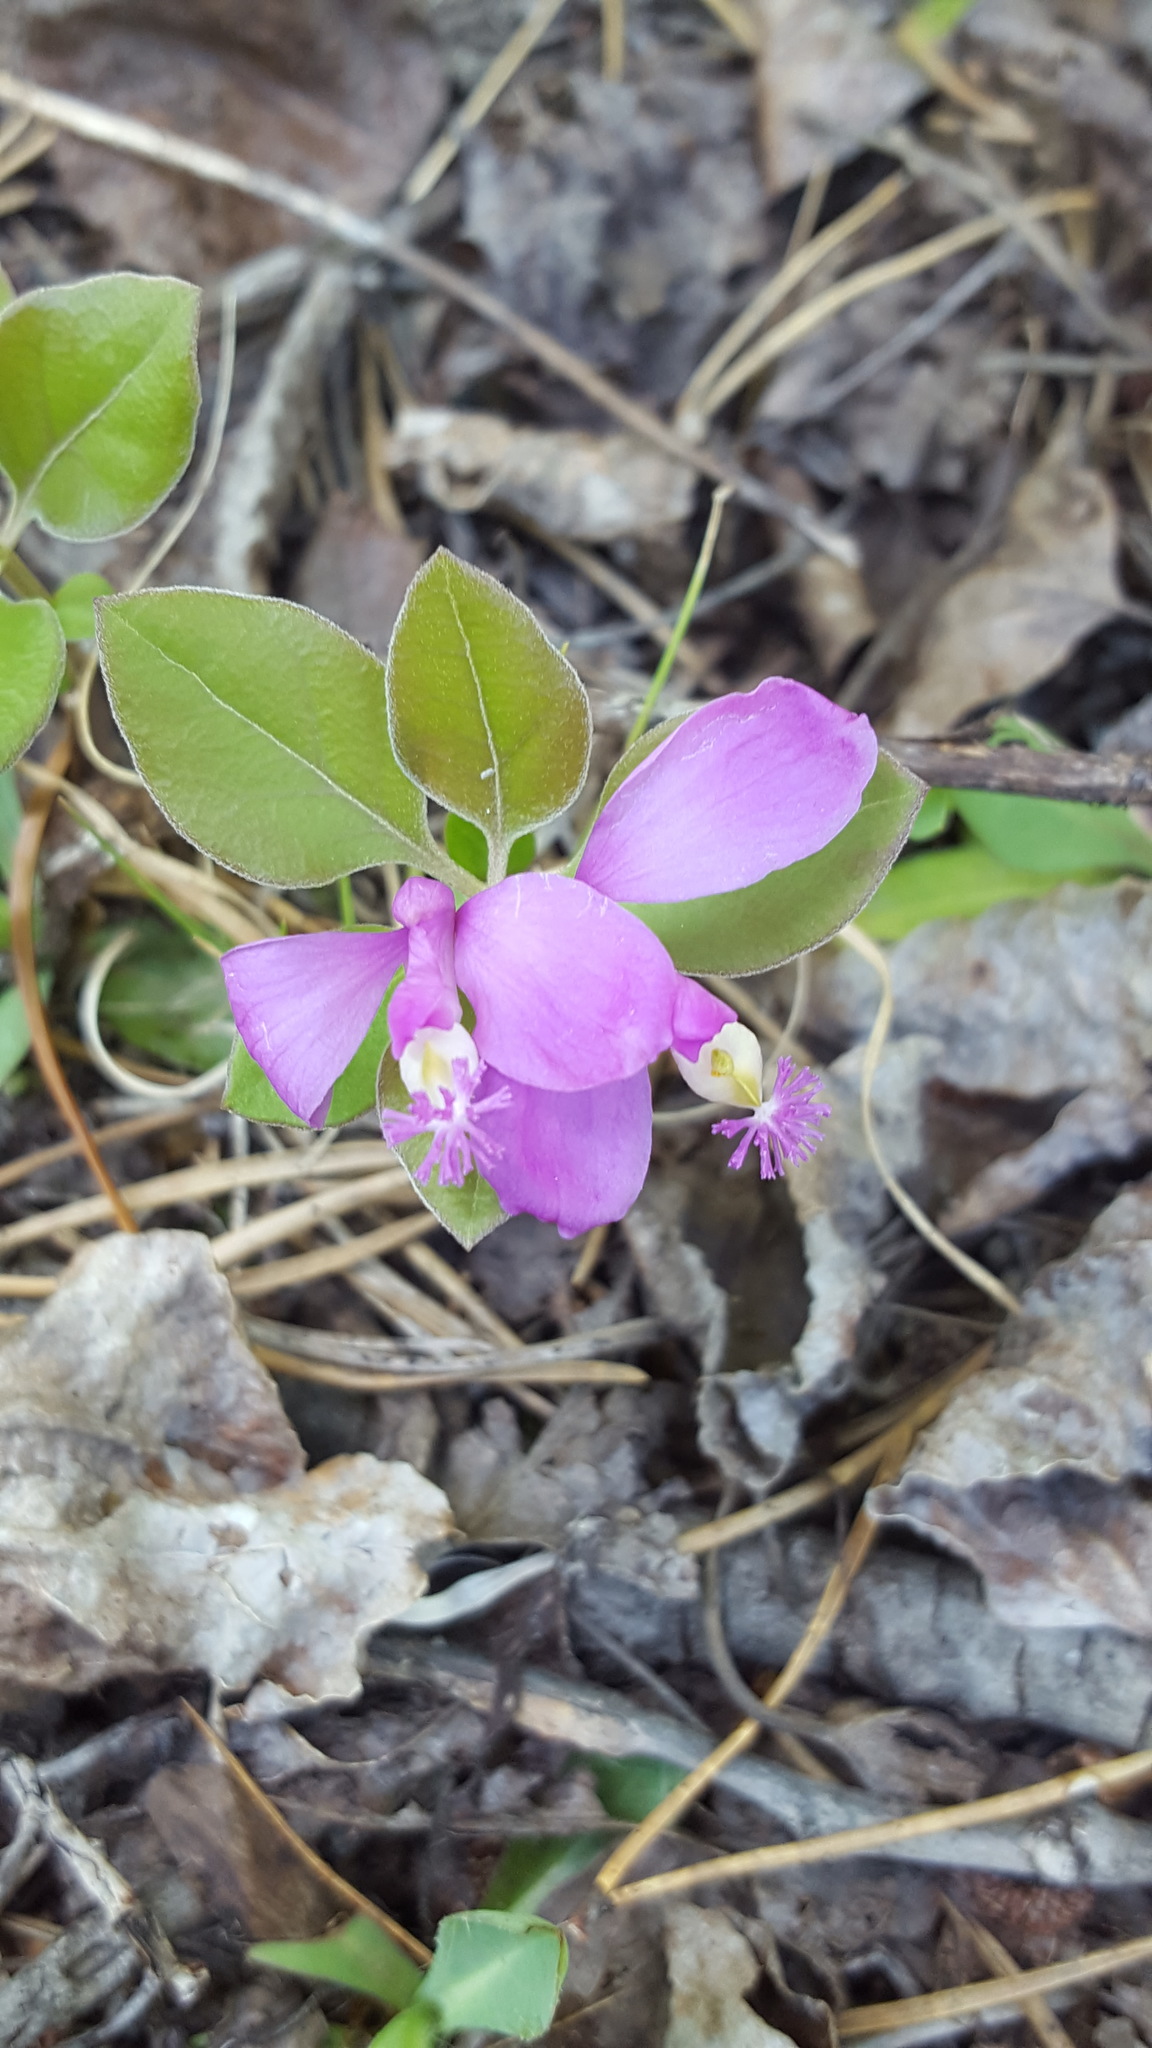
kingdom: Plantae
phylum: Tracheophyta
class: Magnoliopsida
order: Fabales
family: Polygalaceae
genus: Polygaloides
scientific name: Polygaloides paucifolia
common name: Bird-on-the-wing
